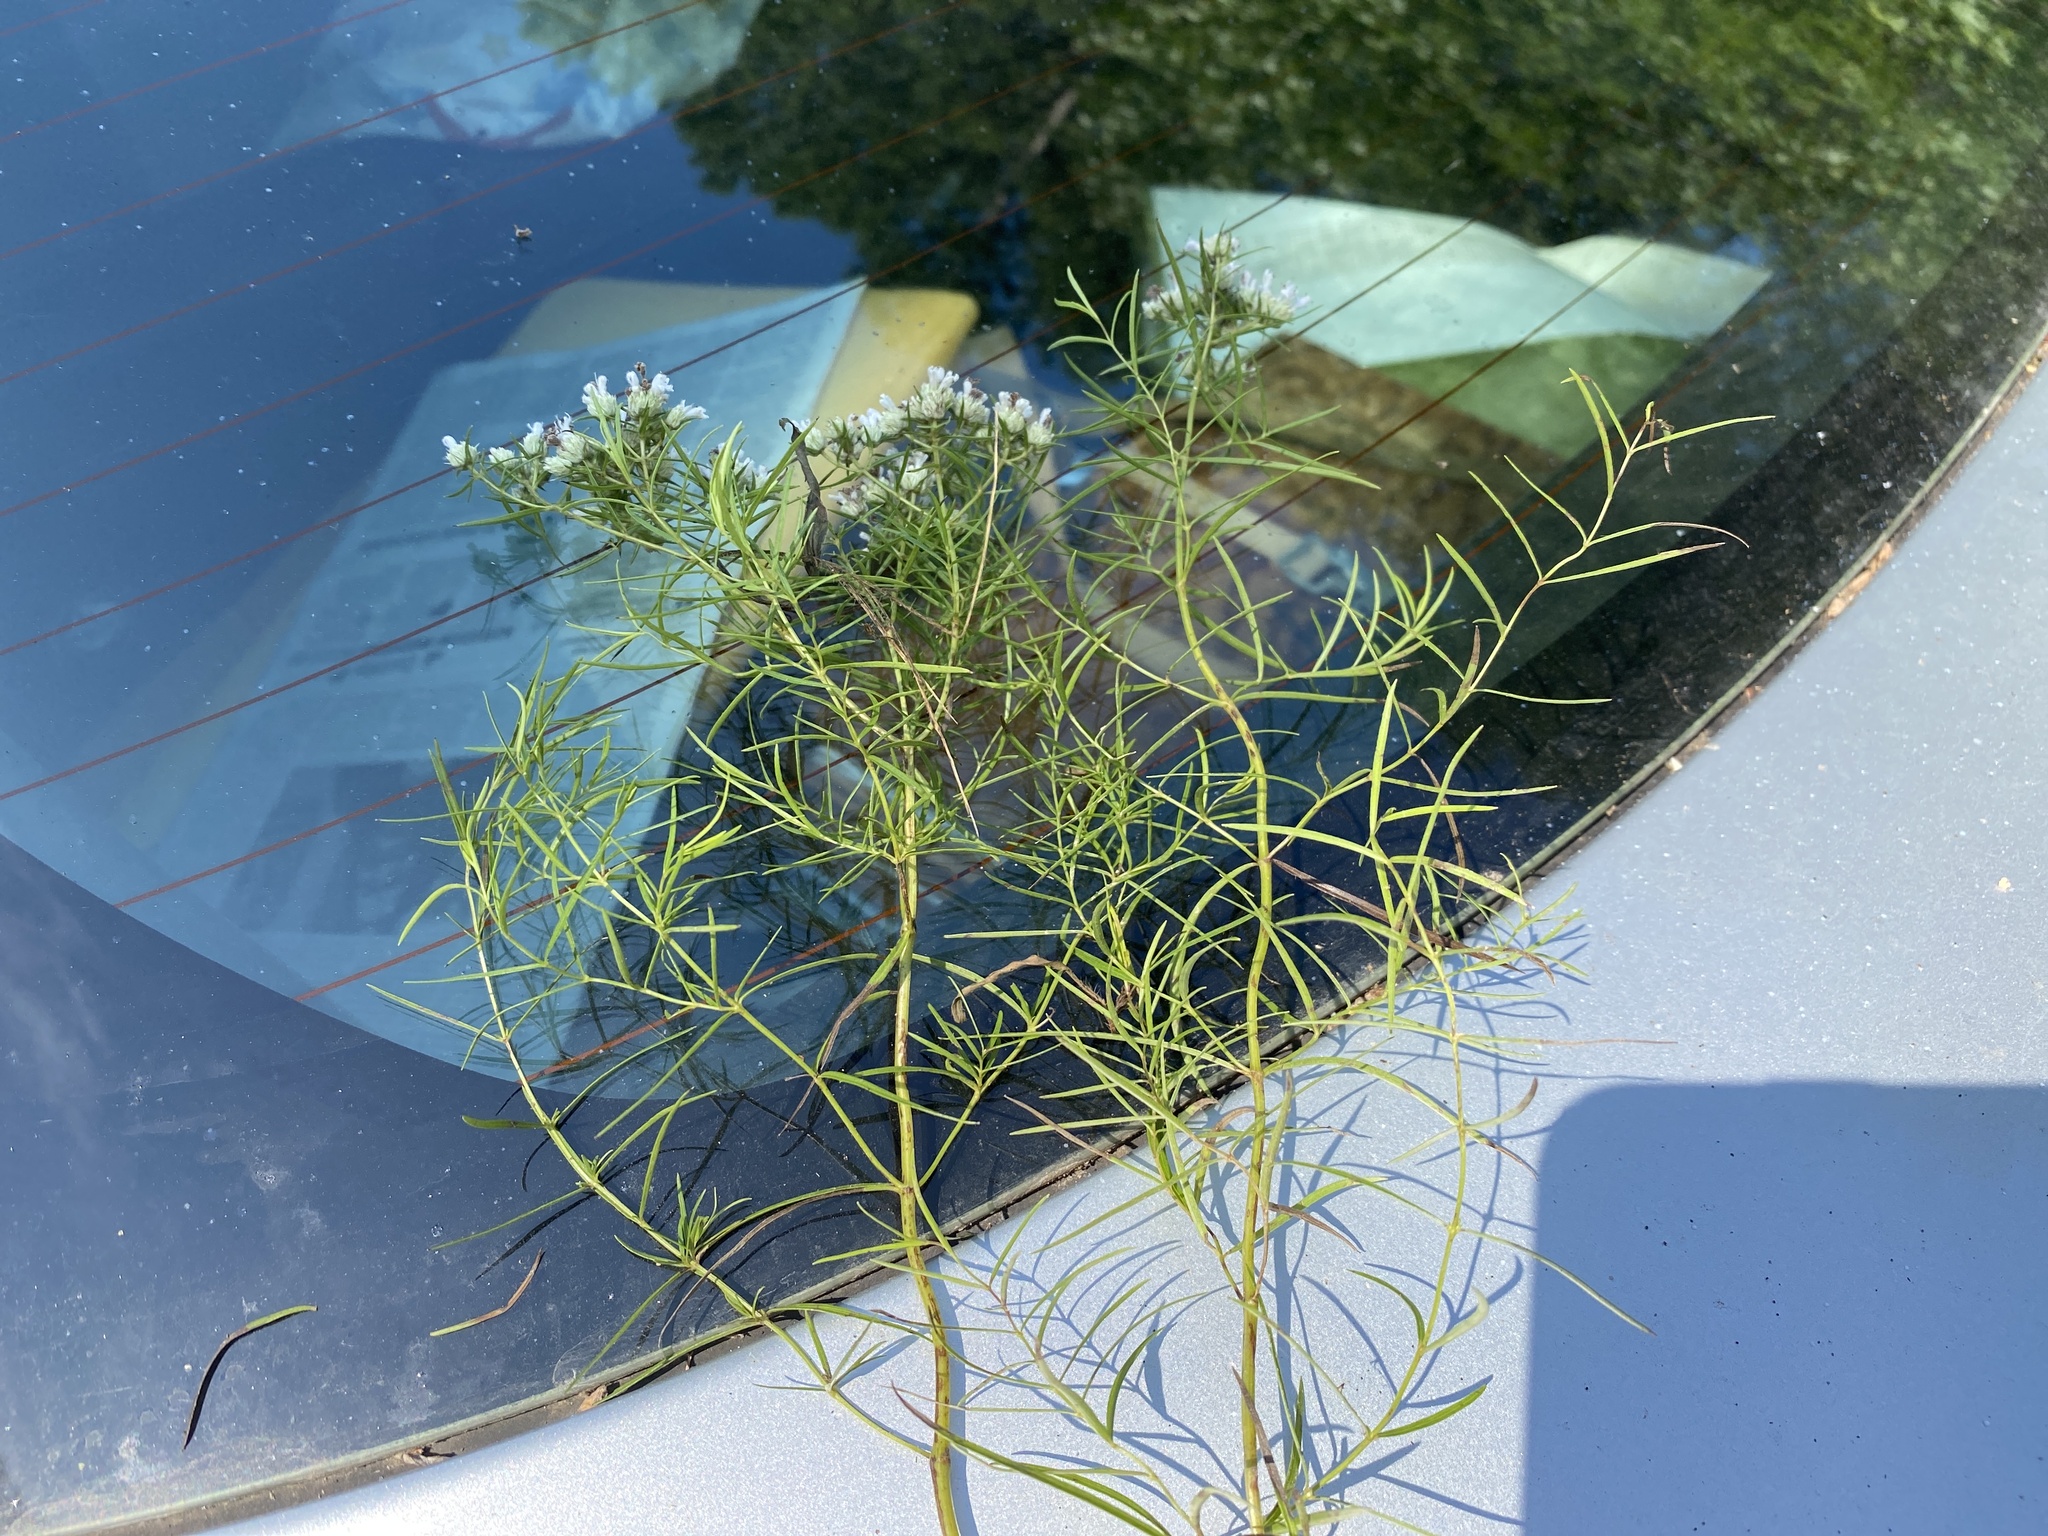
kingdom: Plantae
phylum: Tracheophyta
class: Magnoliopsida
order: Lamiales
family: Lamiaceae
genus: Pycnanthemum
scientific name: Pycnanthemum tenuifolium
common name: Narrow-leaf mountain-mint
